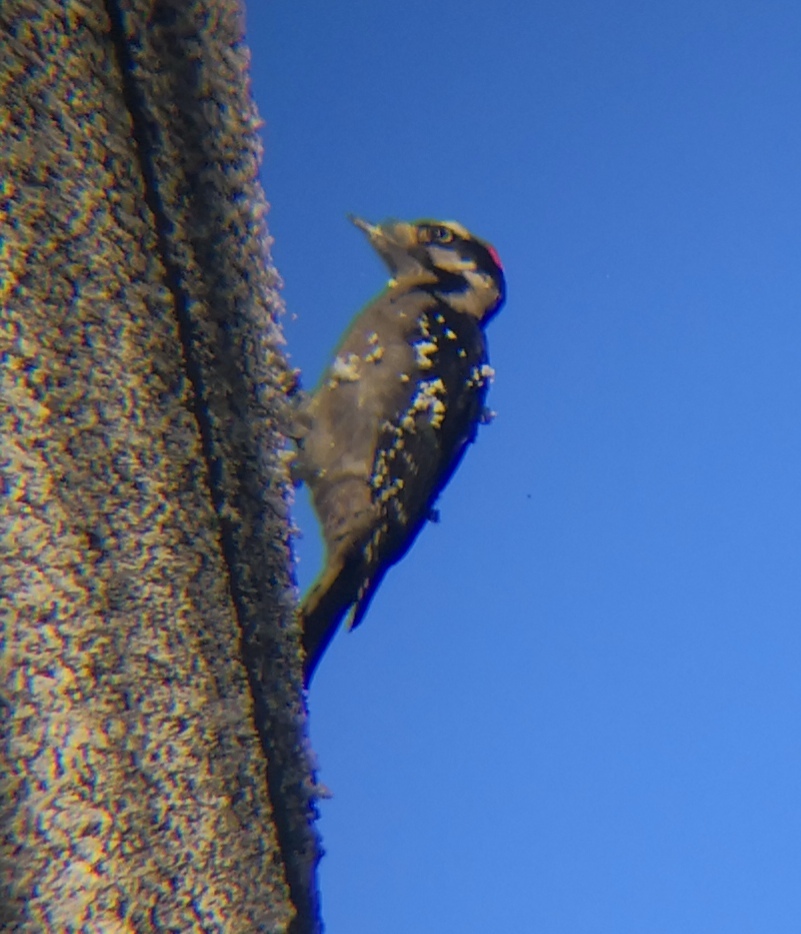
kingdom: Animalia
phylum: Chordata
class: Aves
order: Piciformes
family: Picidae
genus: Dryobates
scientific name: Dryobates pubescens
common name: Downy woodpecker
